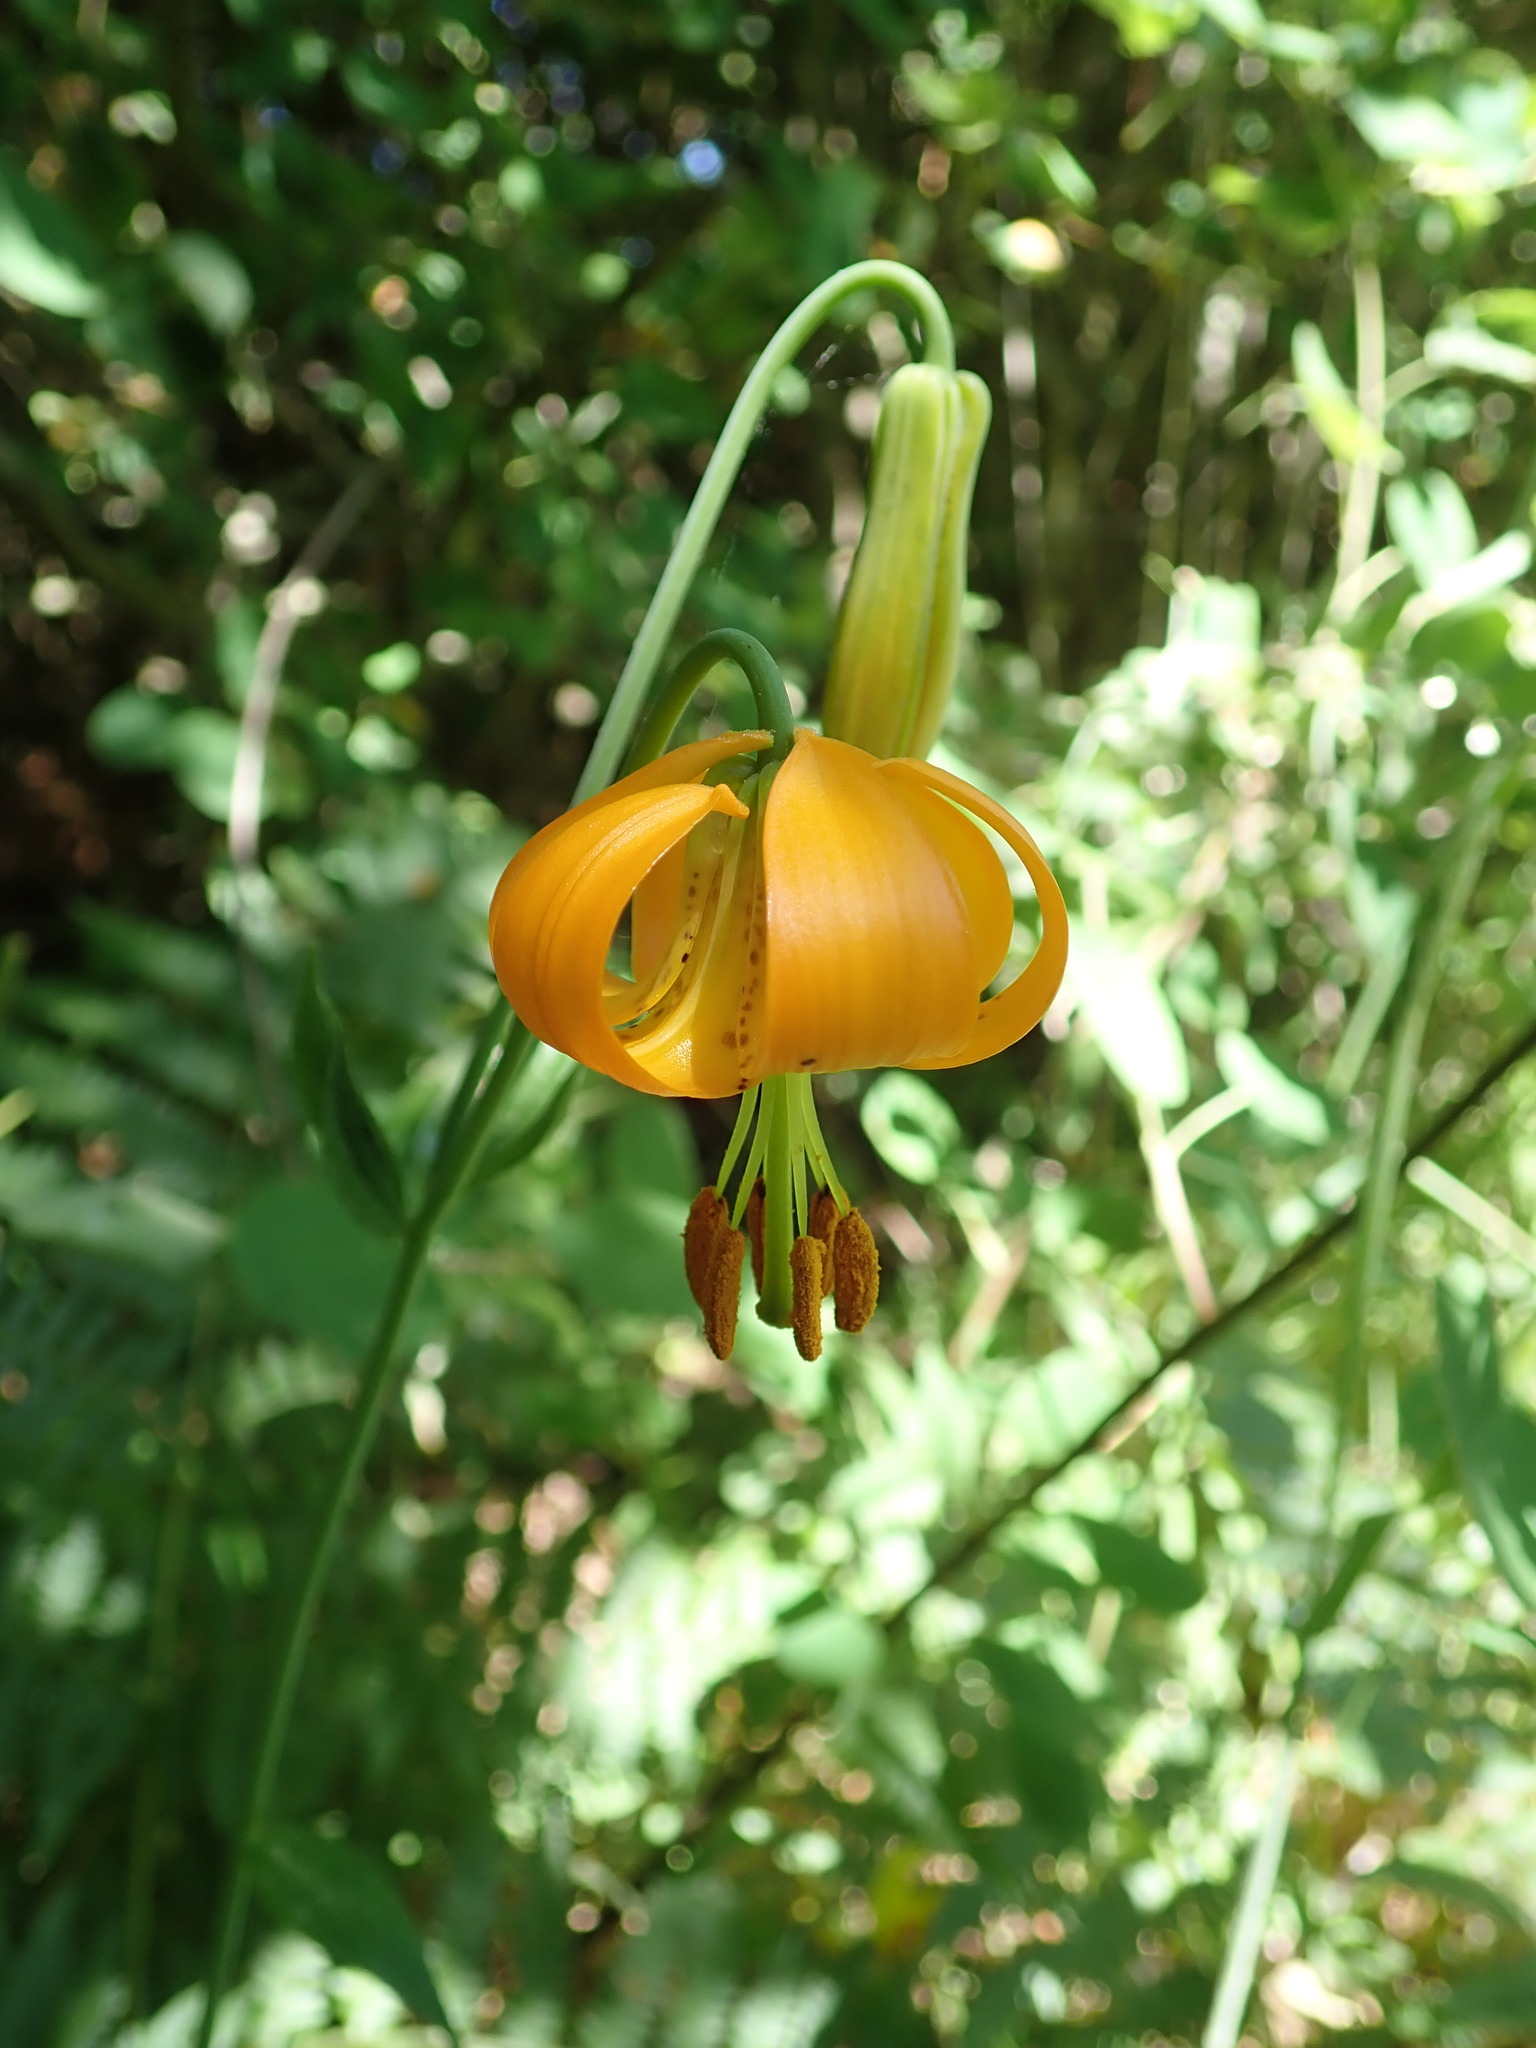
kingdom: Plantae
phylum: Tracheophyta
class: Liliopsida
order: Liliales
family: Liliaceae
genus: Lilium
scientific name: Lilium columbianum
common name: Columbia lily
